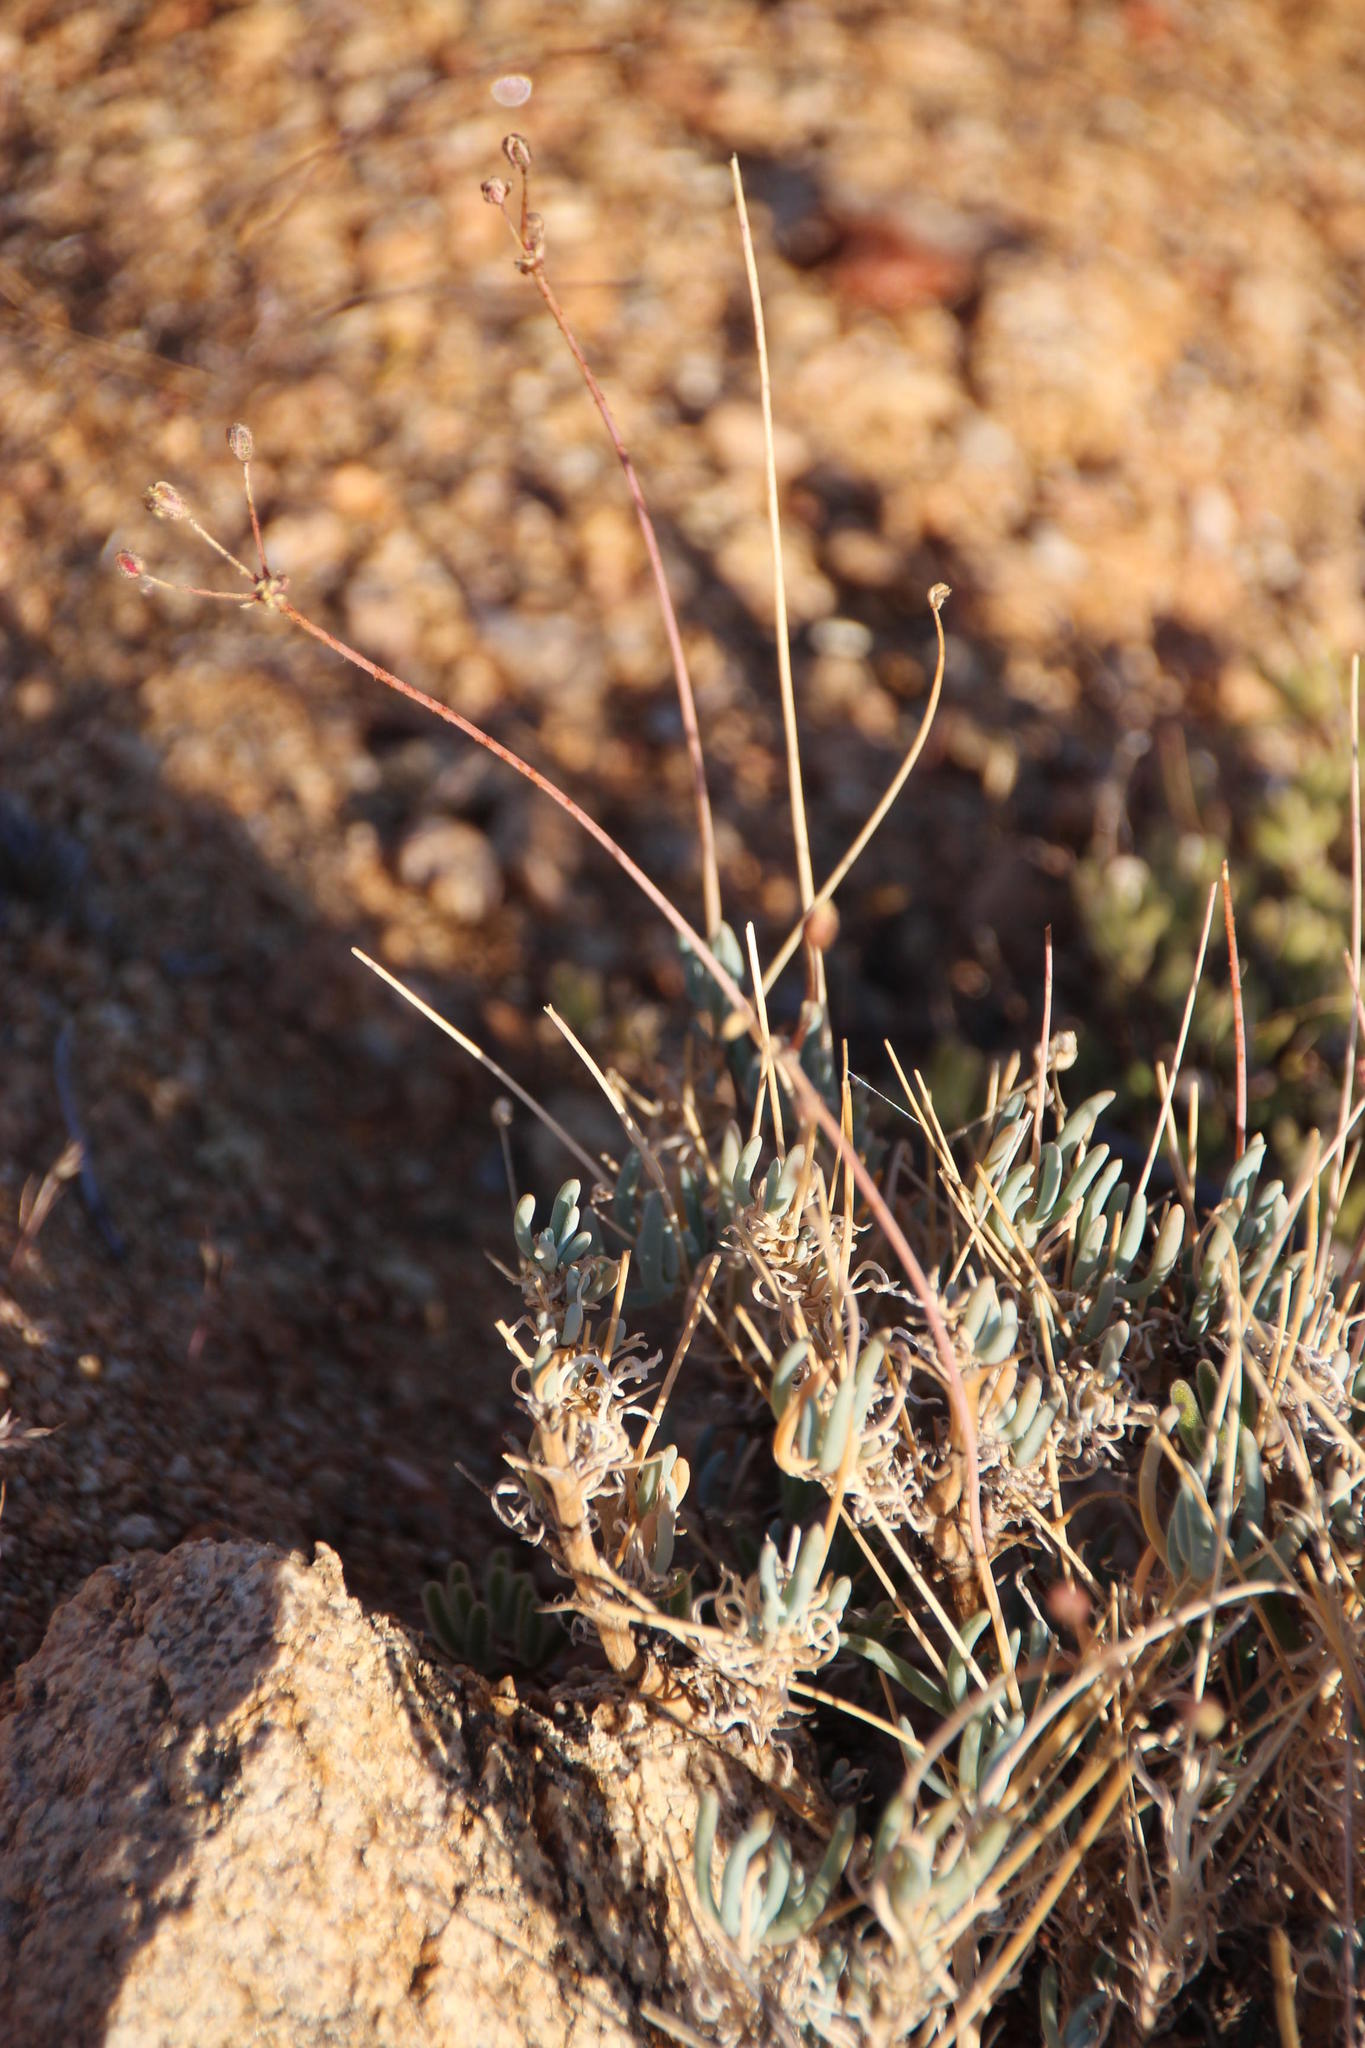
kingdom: Plantae
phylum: Tracheophyta
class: Magnoliopsida
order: Caryophyllales
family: Kewaceae
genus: Kewa
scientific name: Kewa salsoloides
